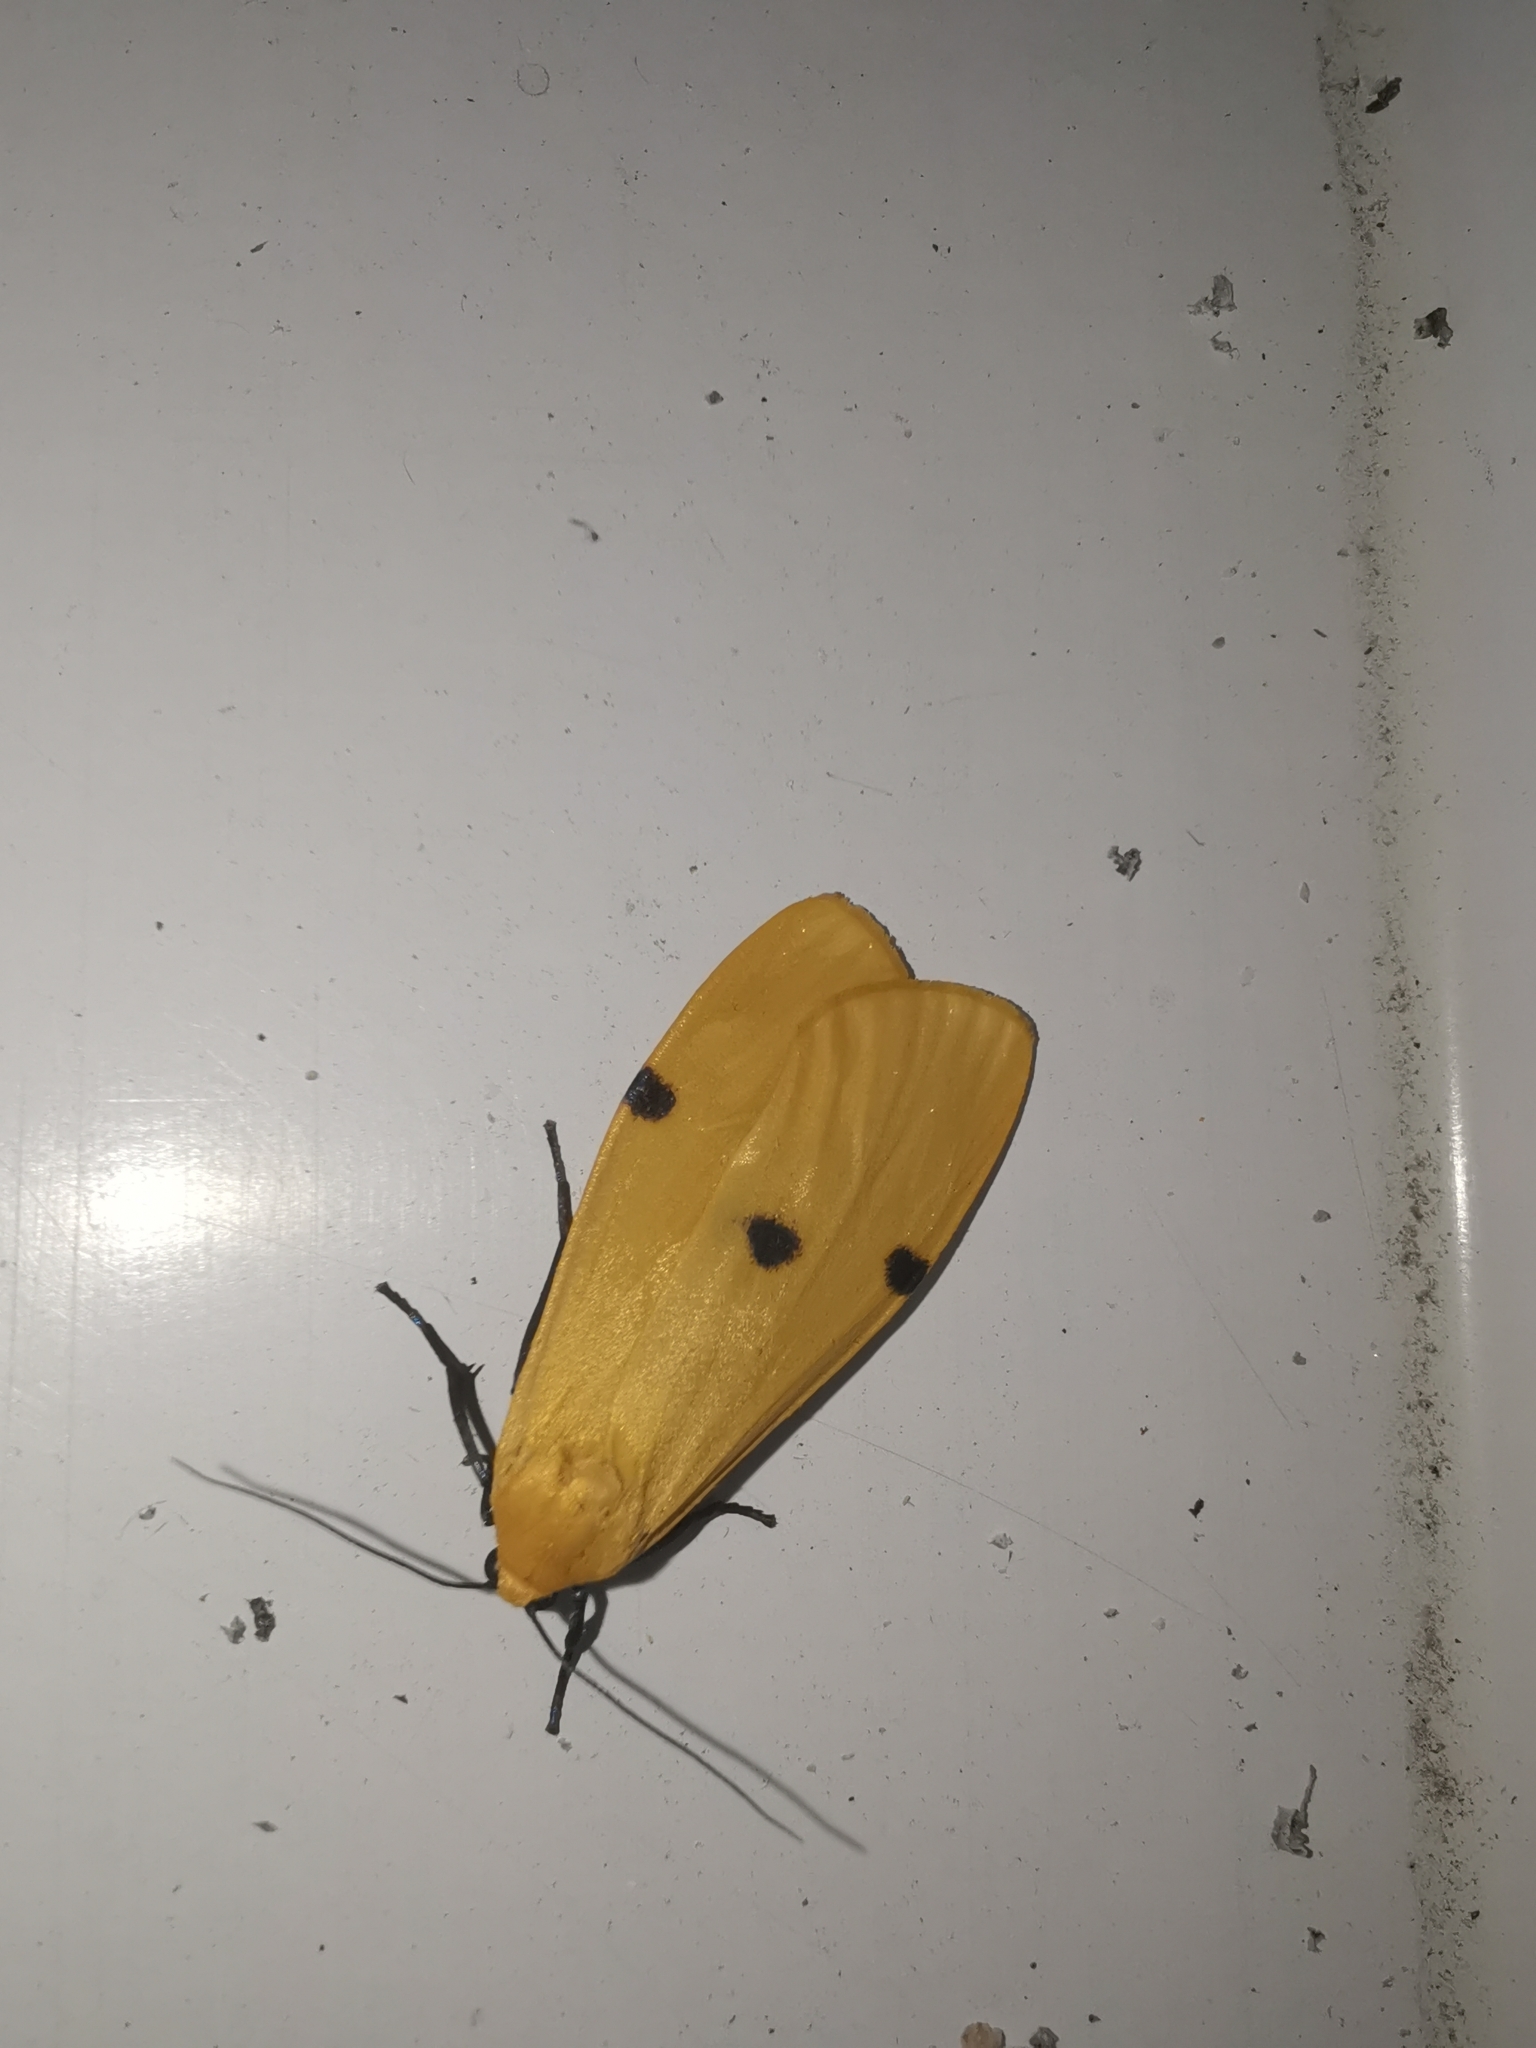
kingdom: Animalia
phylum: Arthropoda
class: Insecta
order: Lepidoptera
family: Erebidae
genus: Lithosia
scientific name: Lithosia quadra
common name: Four-spotted footman
